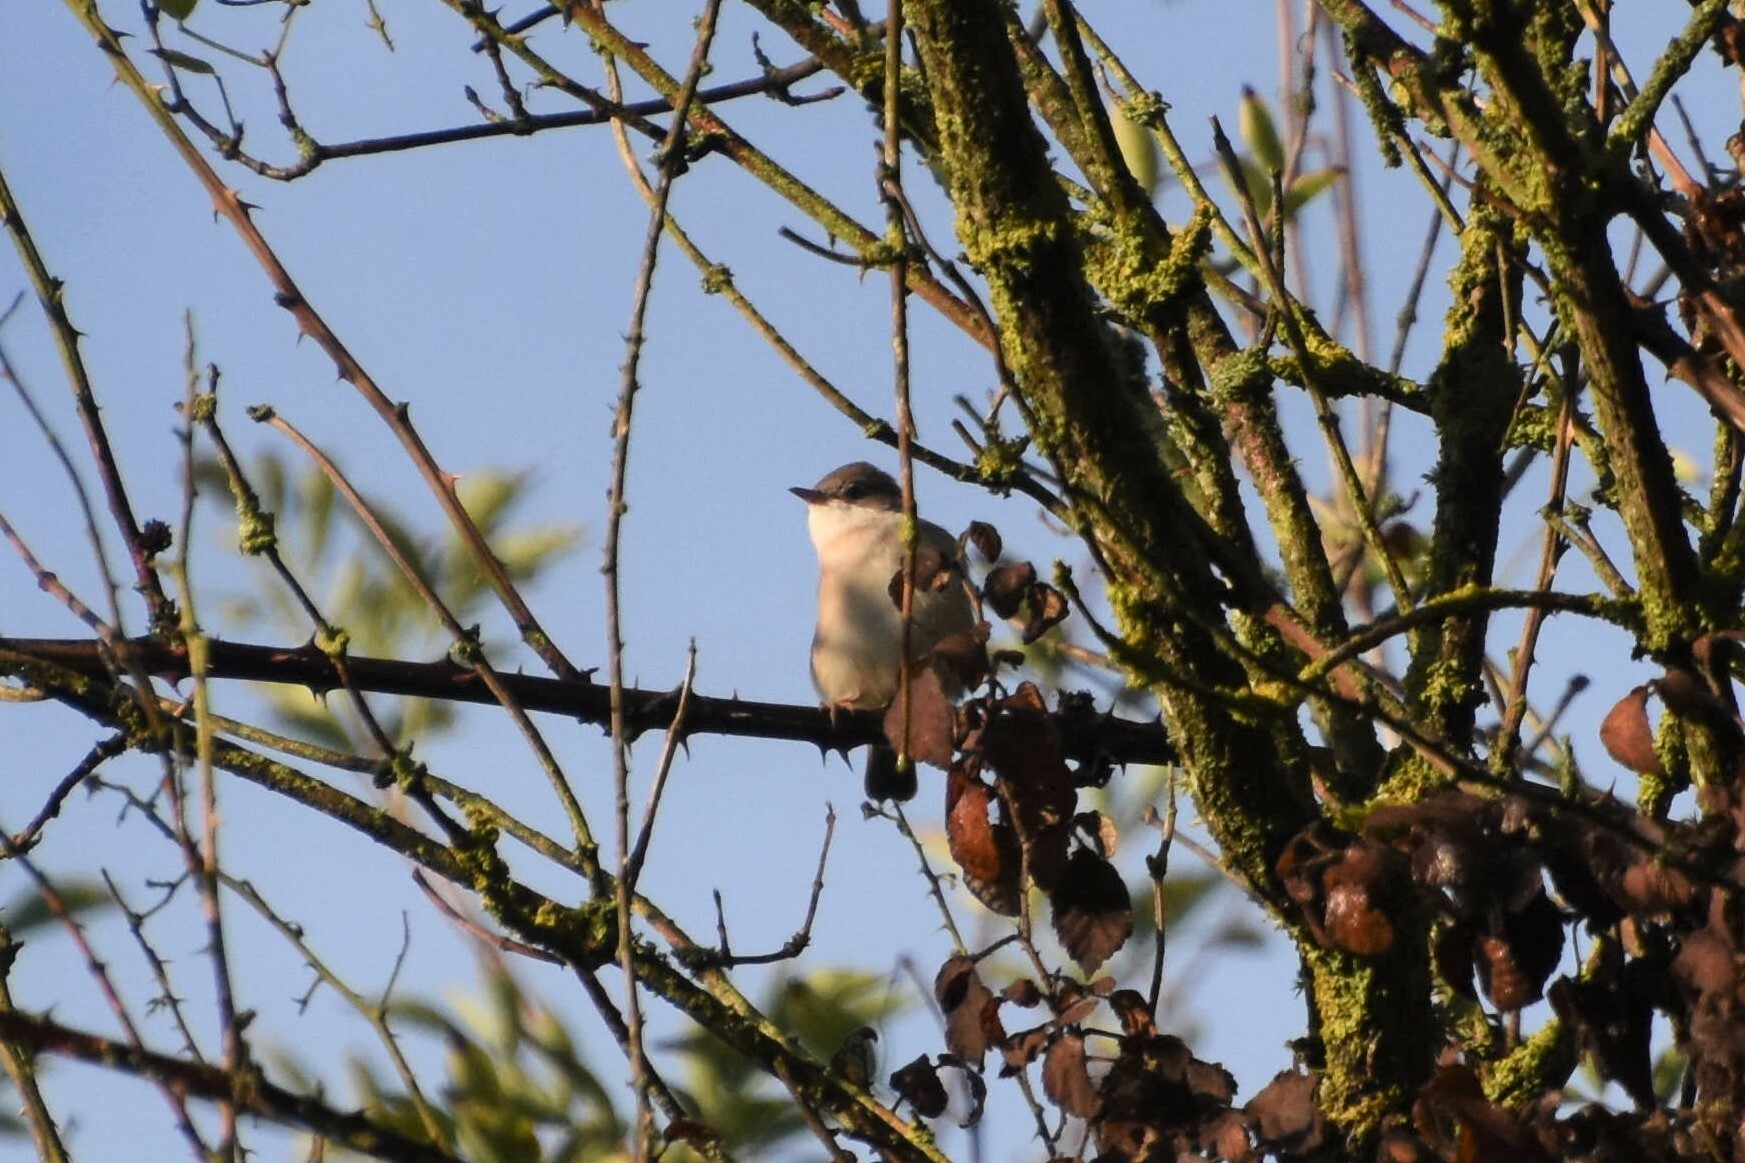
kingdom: Animalia
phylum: Chordata
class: Aves
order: Passeriformes
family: Sylviidae
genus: Sylvia
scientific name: Sylvia communis
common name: Common whitethroat
